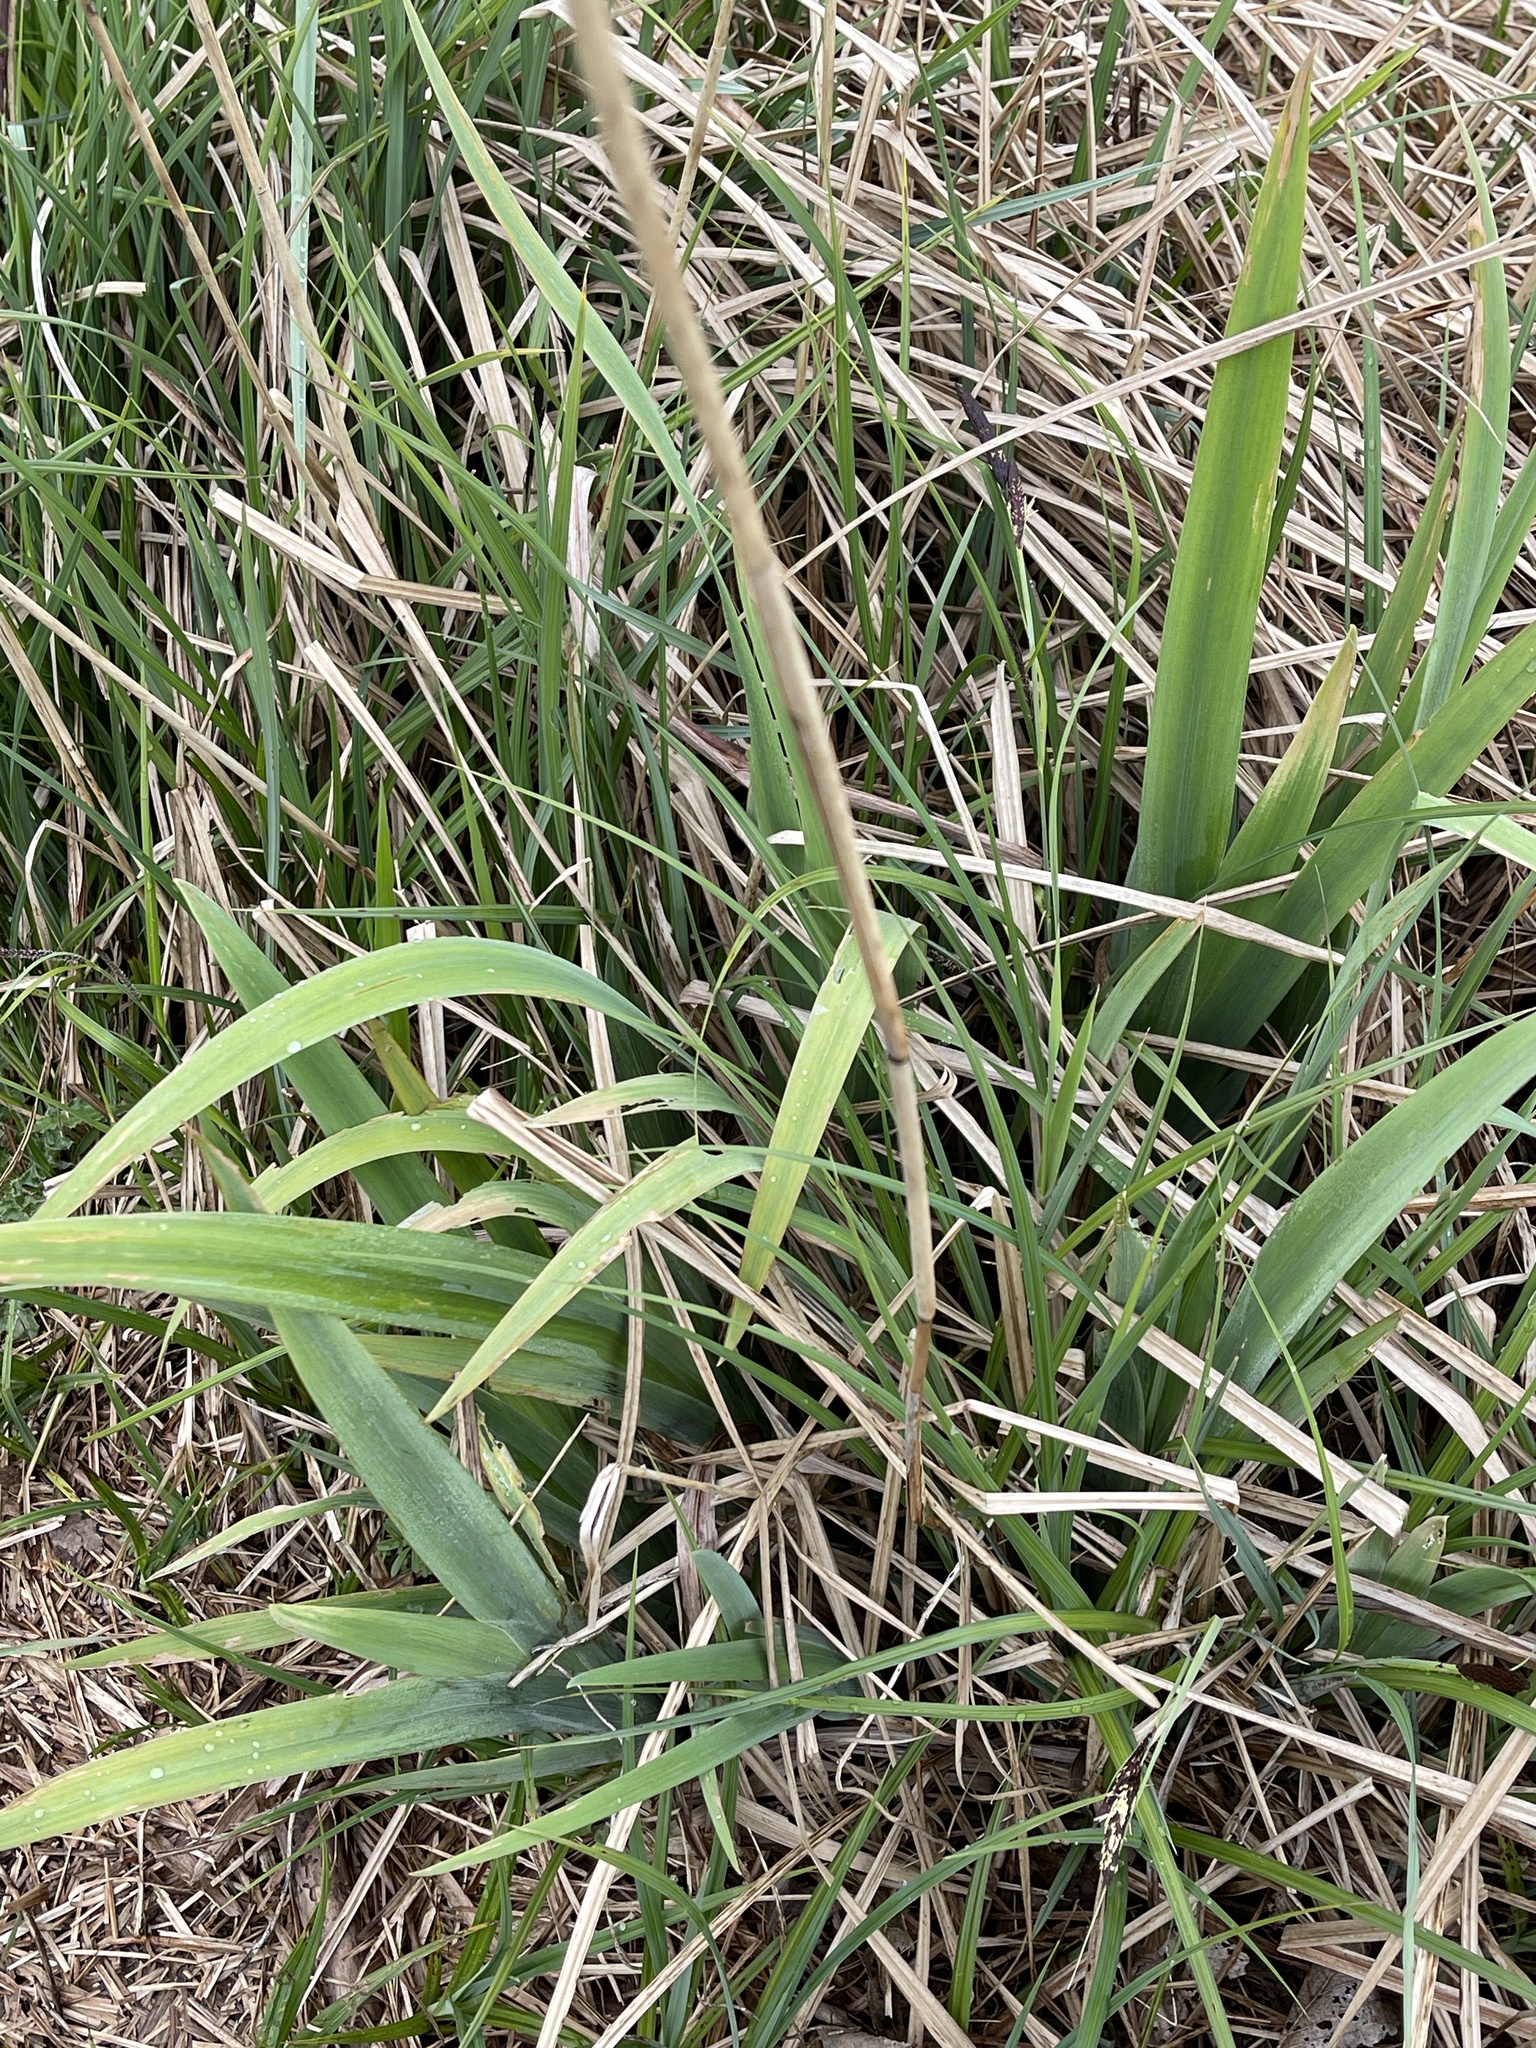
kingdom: Plantae
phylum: Tracheophyta
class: Liliopsida
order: Asparagales
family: Iridaceae
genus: Iris
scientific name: Iris pseudacorus
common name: Yellow flag
